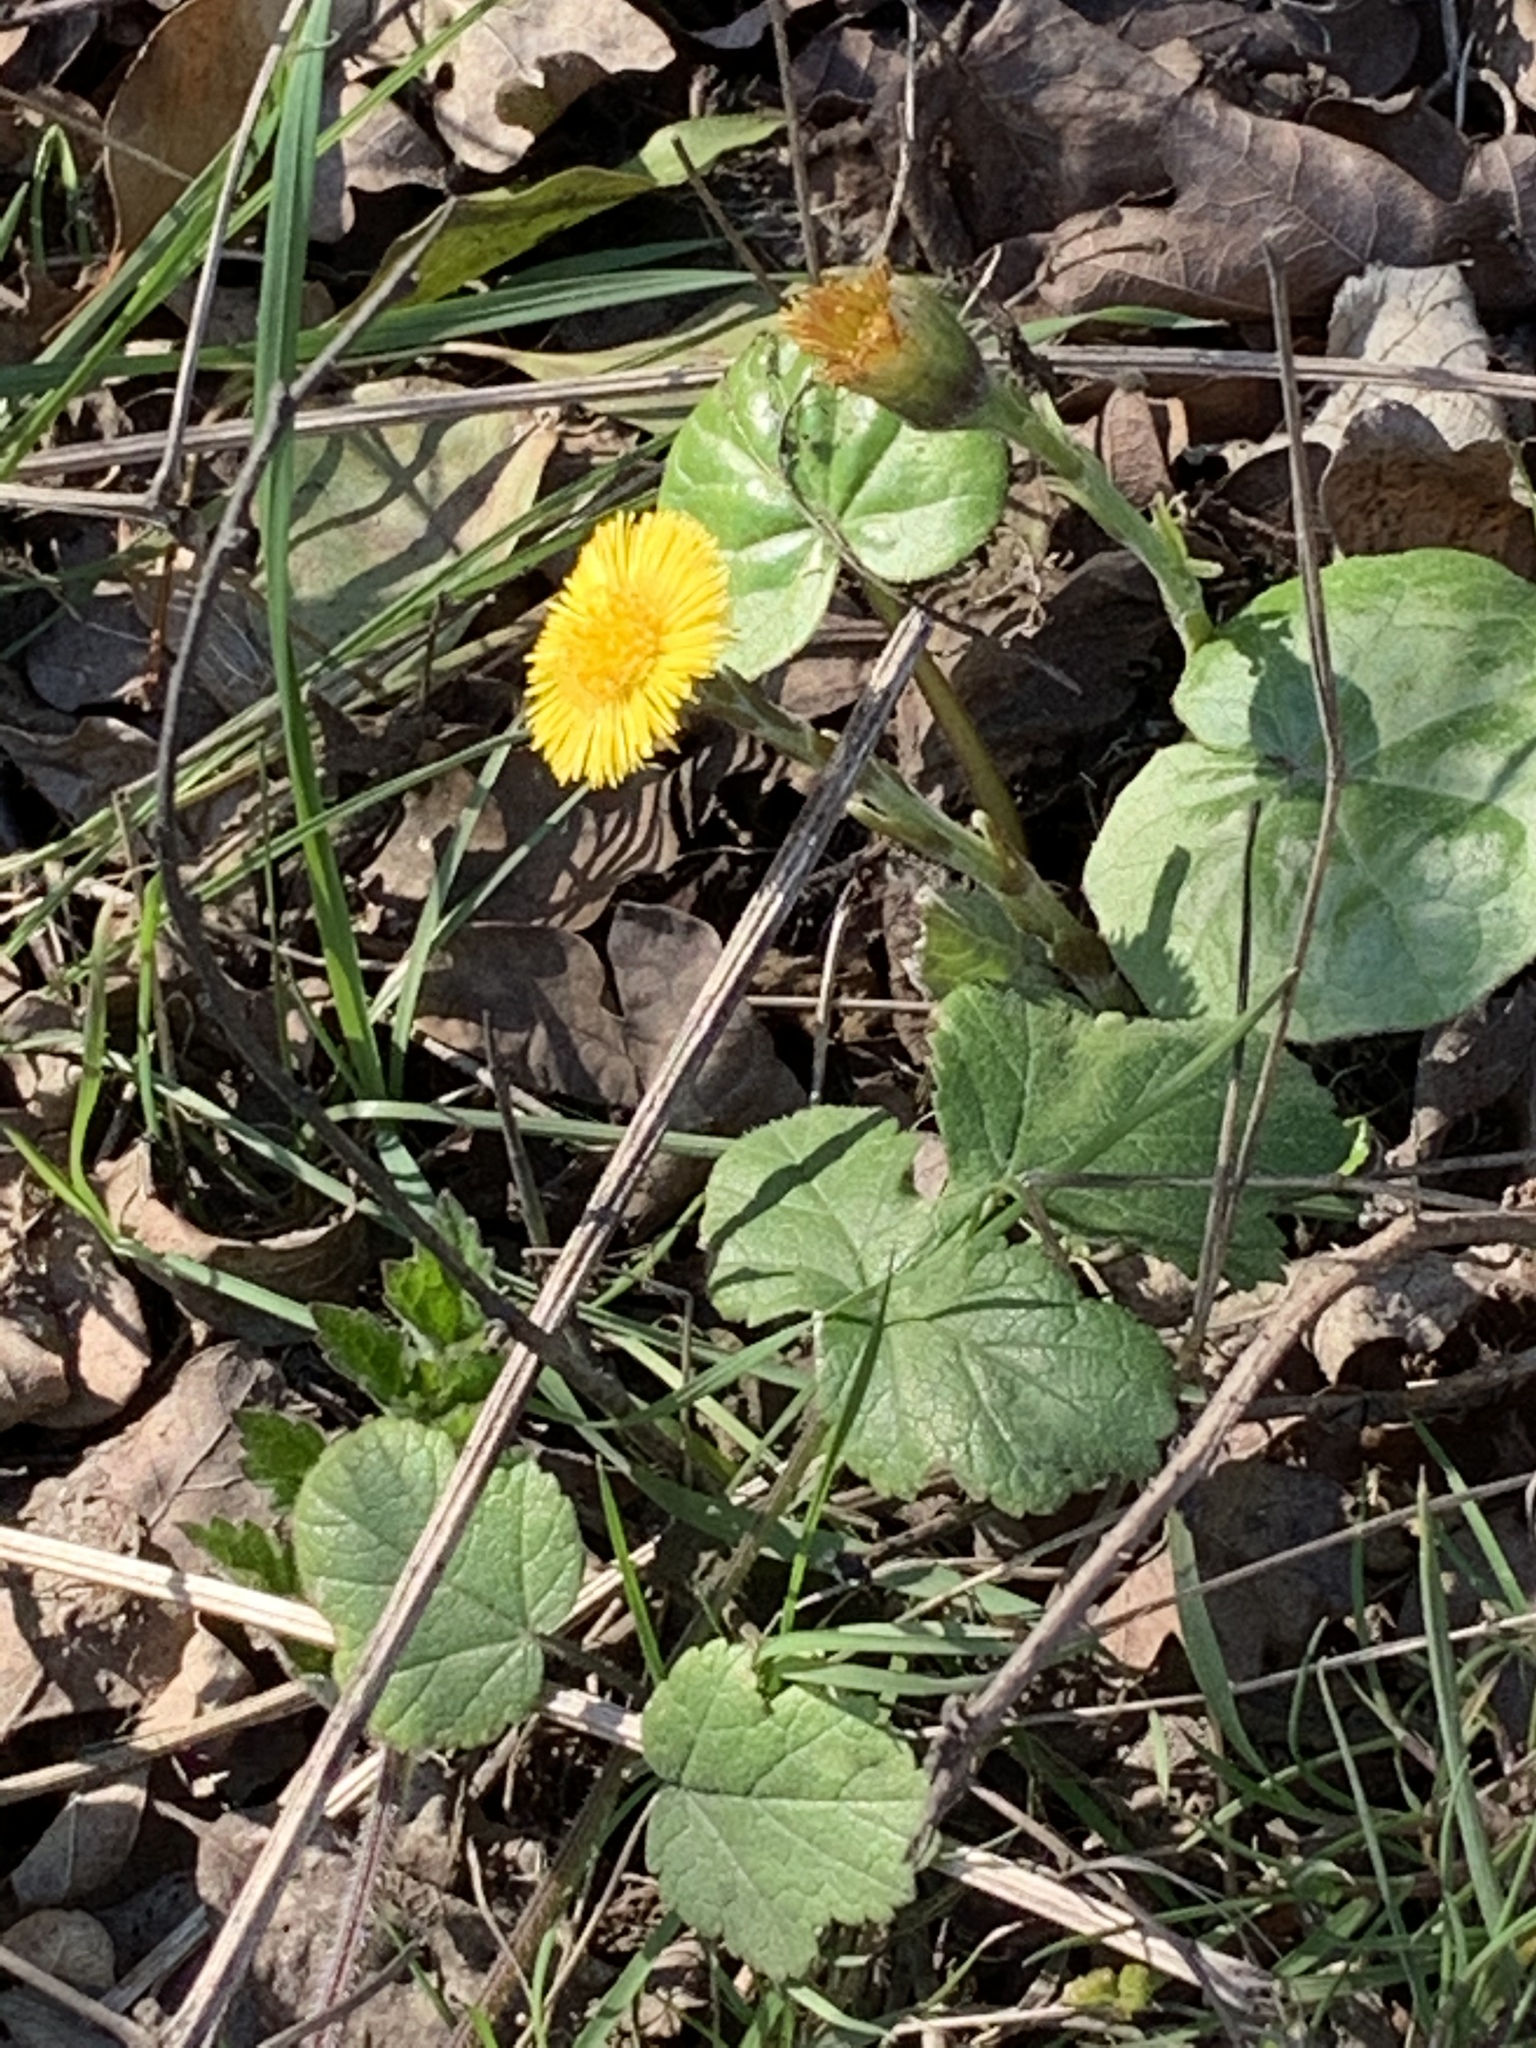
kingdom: Plantae
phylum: Tracheophyta
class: Magnoliopsida
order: Asterales
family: Asteraceae
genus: Tussilago
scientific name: Tussilago farfara
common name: Coltsfoot
